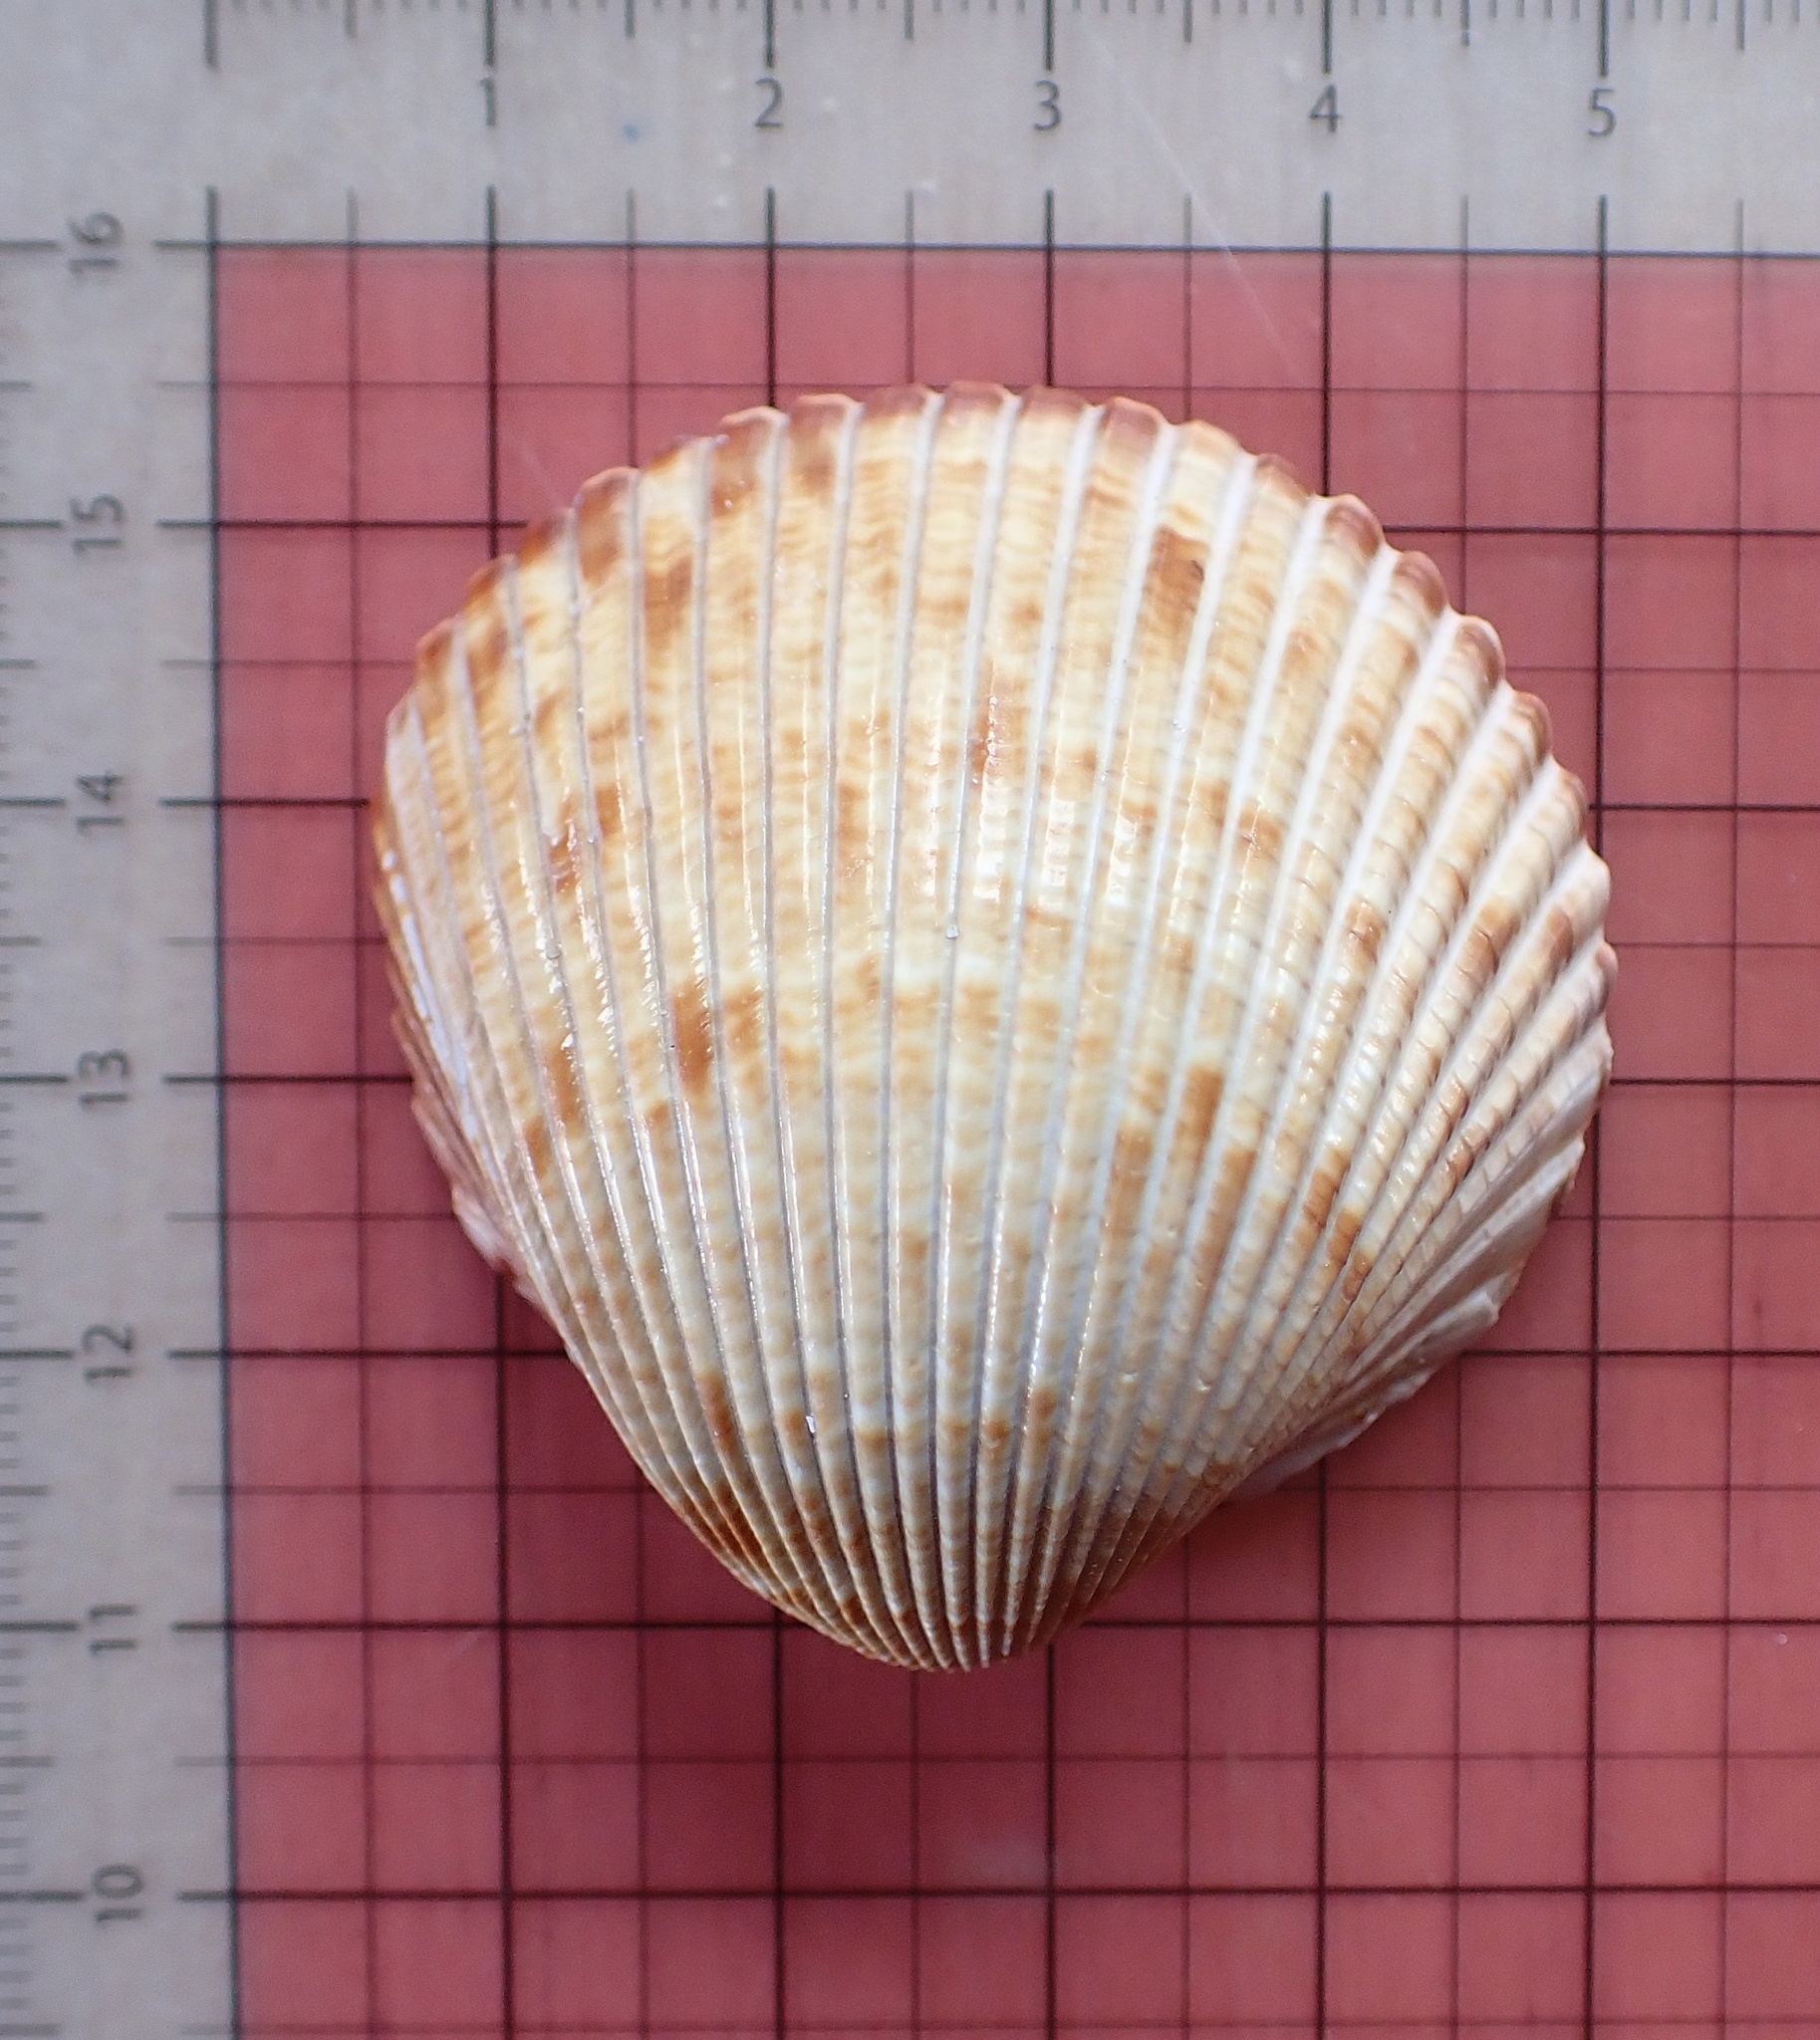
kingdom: Animalia
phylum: Mollusca
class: Bivalvia
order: Cardiida
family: Cardiidae
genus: Dinocardium
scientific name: Dinocardium robustum
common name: Atlantic giant cockle
